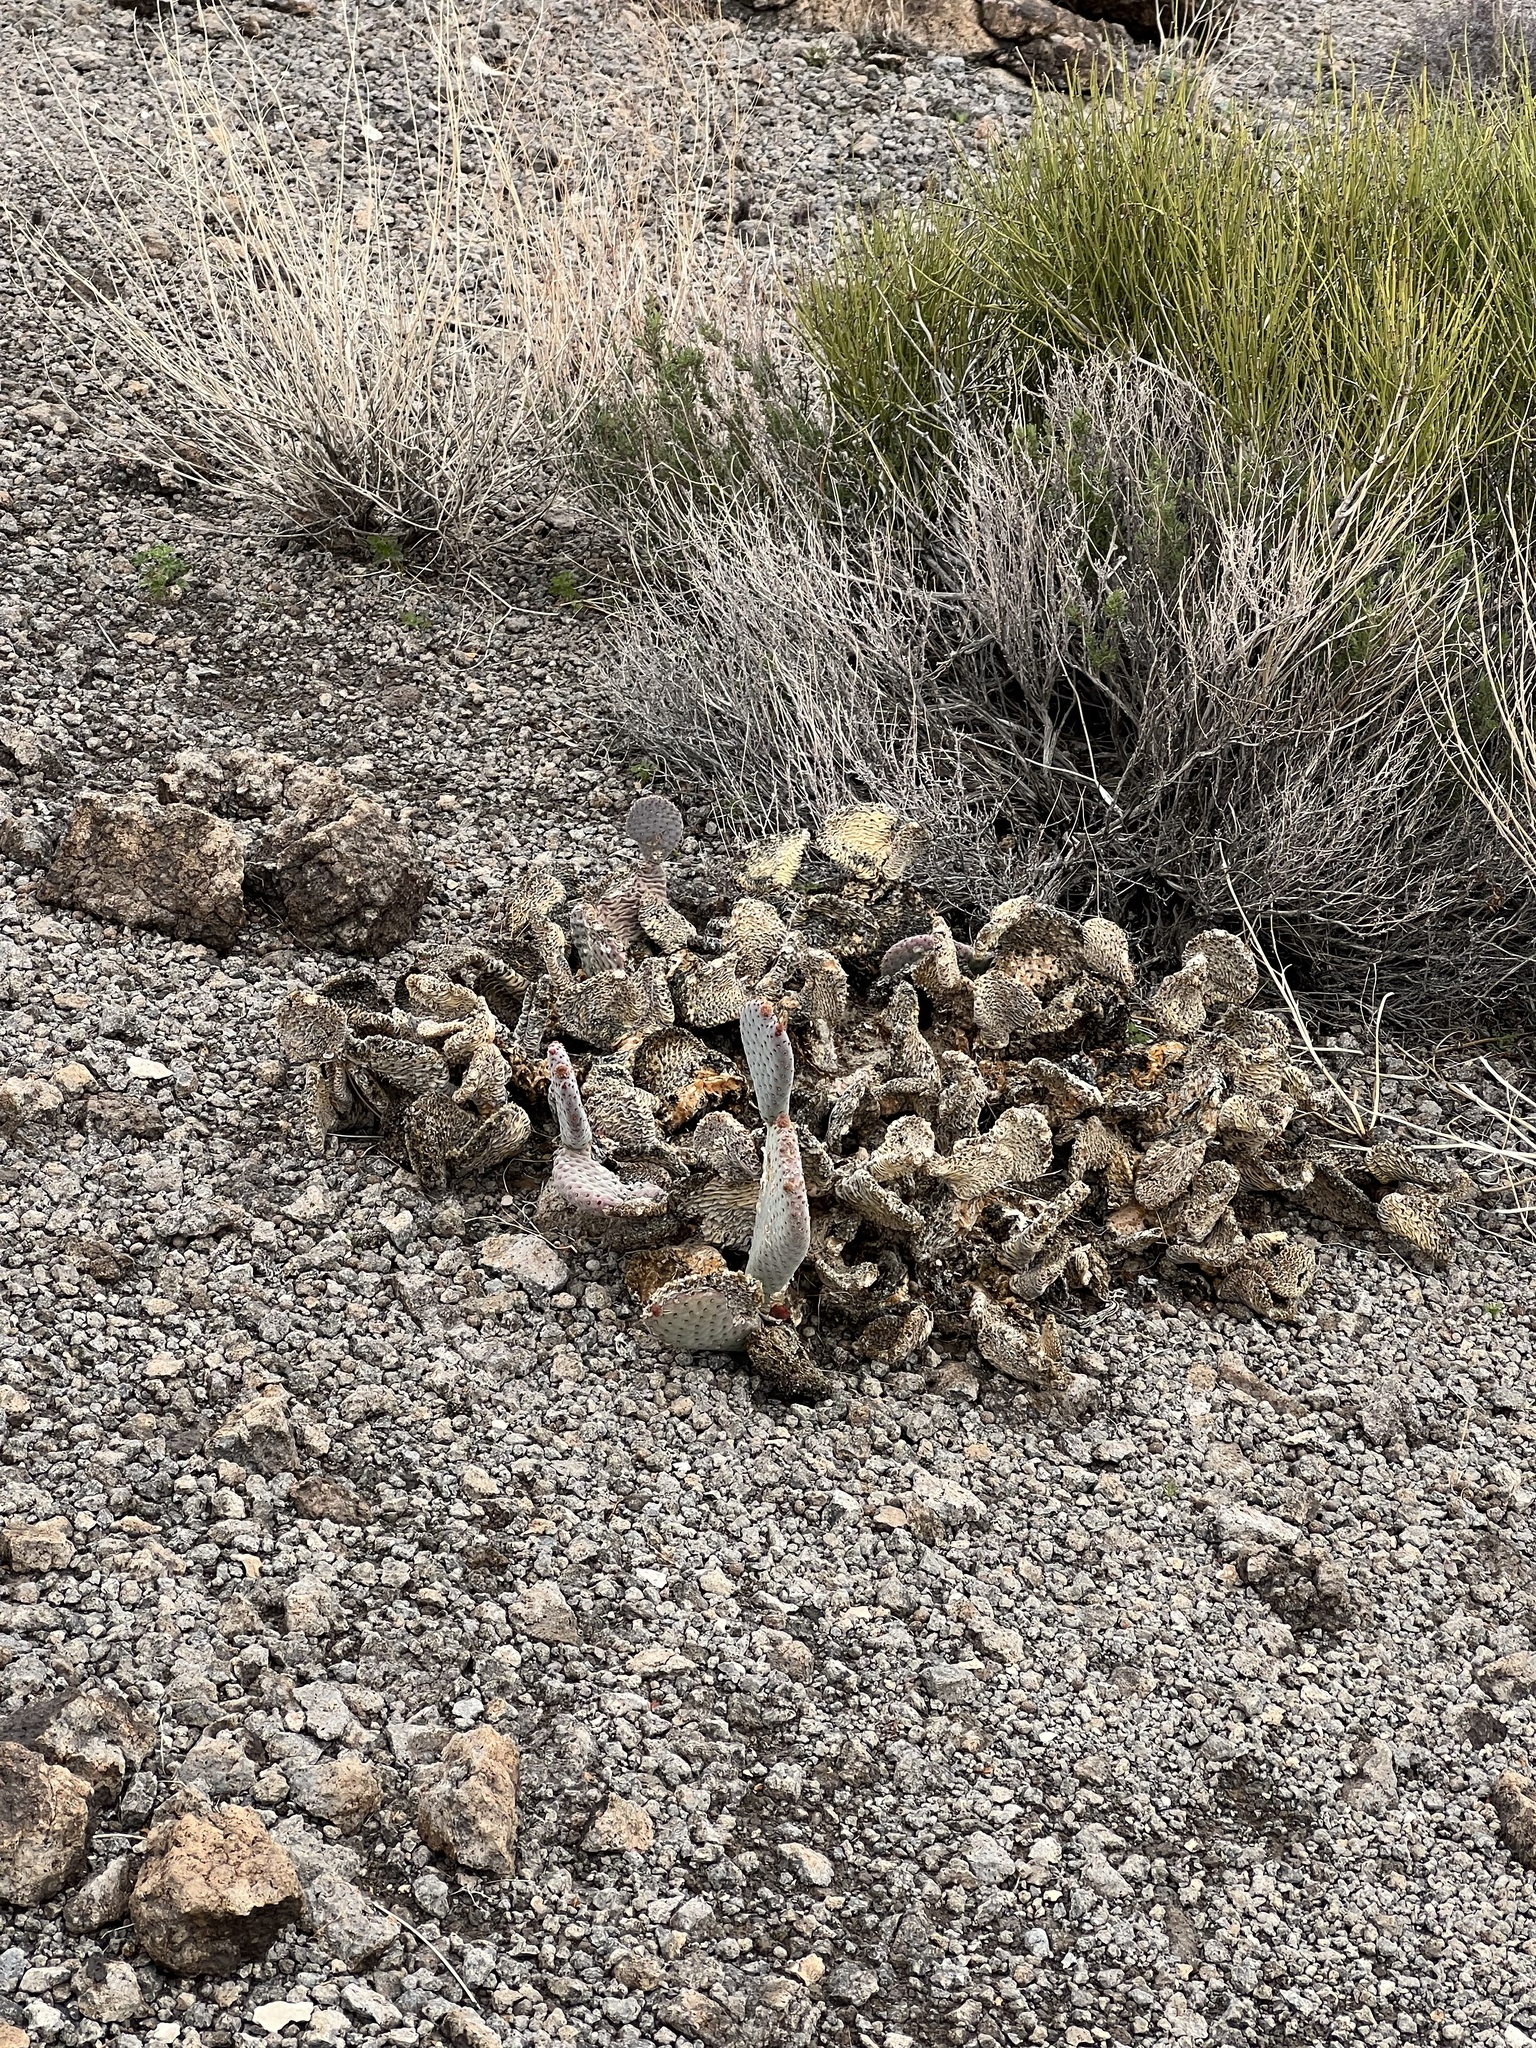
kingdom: Plantae
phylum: Tracheophyta
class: Magnoliopsida
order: Caryophyllales
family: Cactaceae
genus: Opuntia
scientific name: Opuntia basilaris
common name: Beavertail prickly-pear
